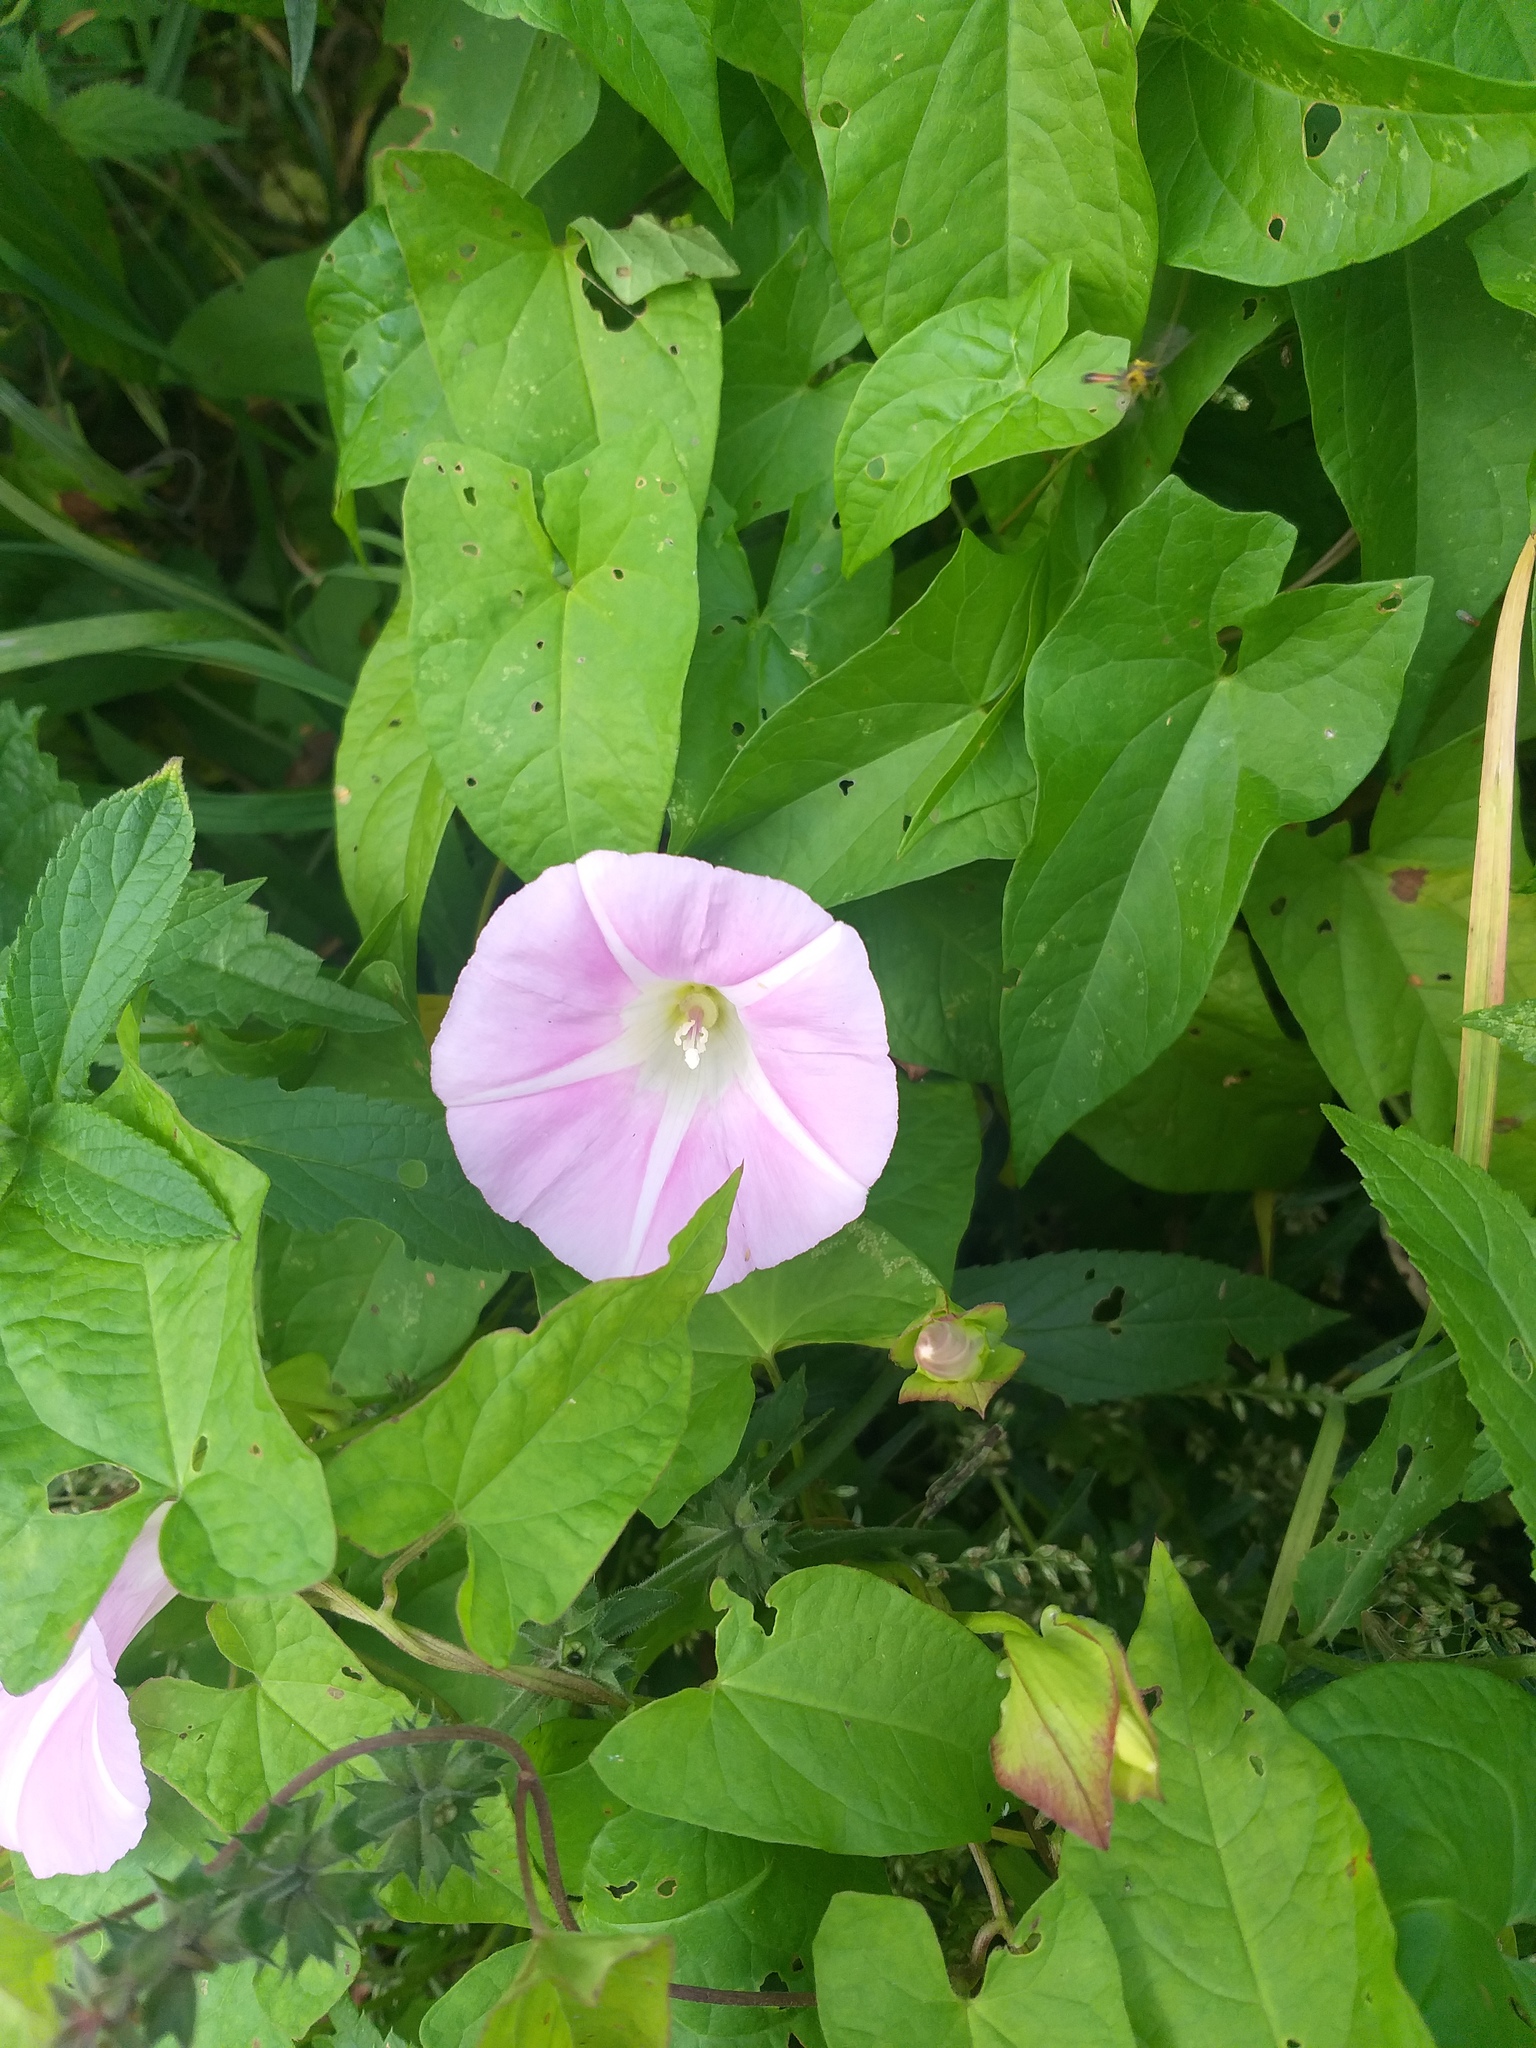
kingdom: Plantae
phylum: Tracheophyta
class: Magnoliopsida
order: Solanales
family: Convolvulaceae
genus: Calystegia
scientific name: Calystegia sepium
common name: Hedge bindweed
